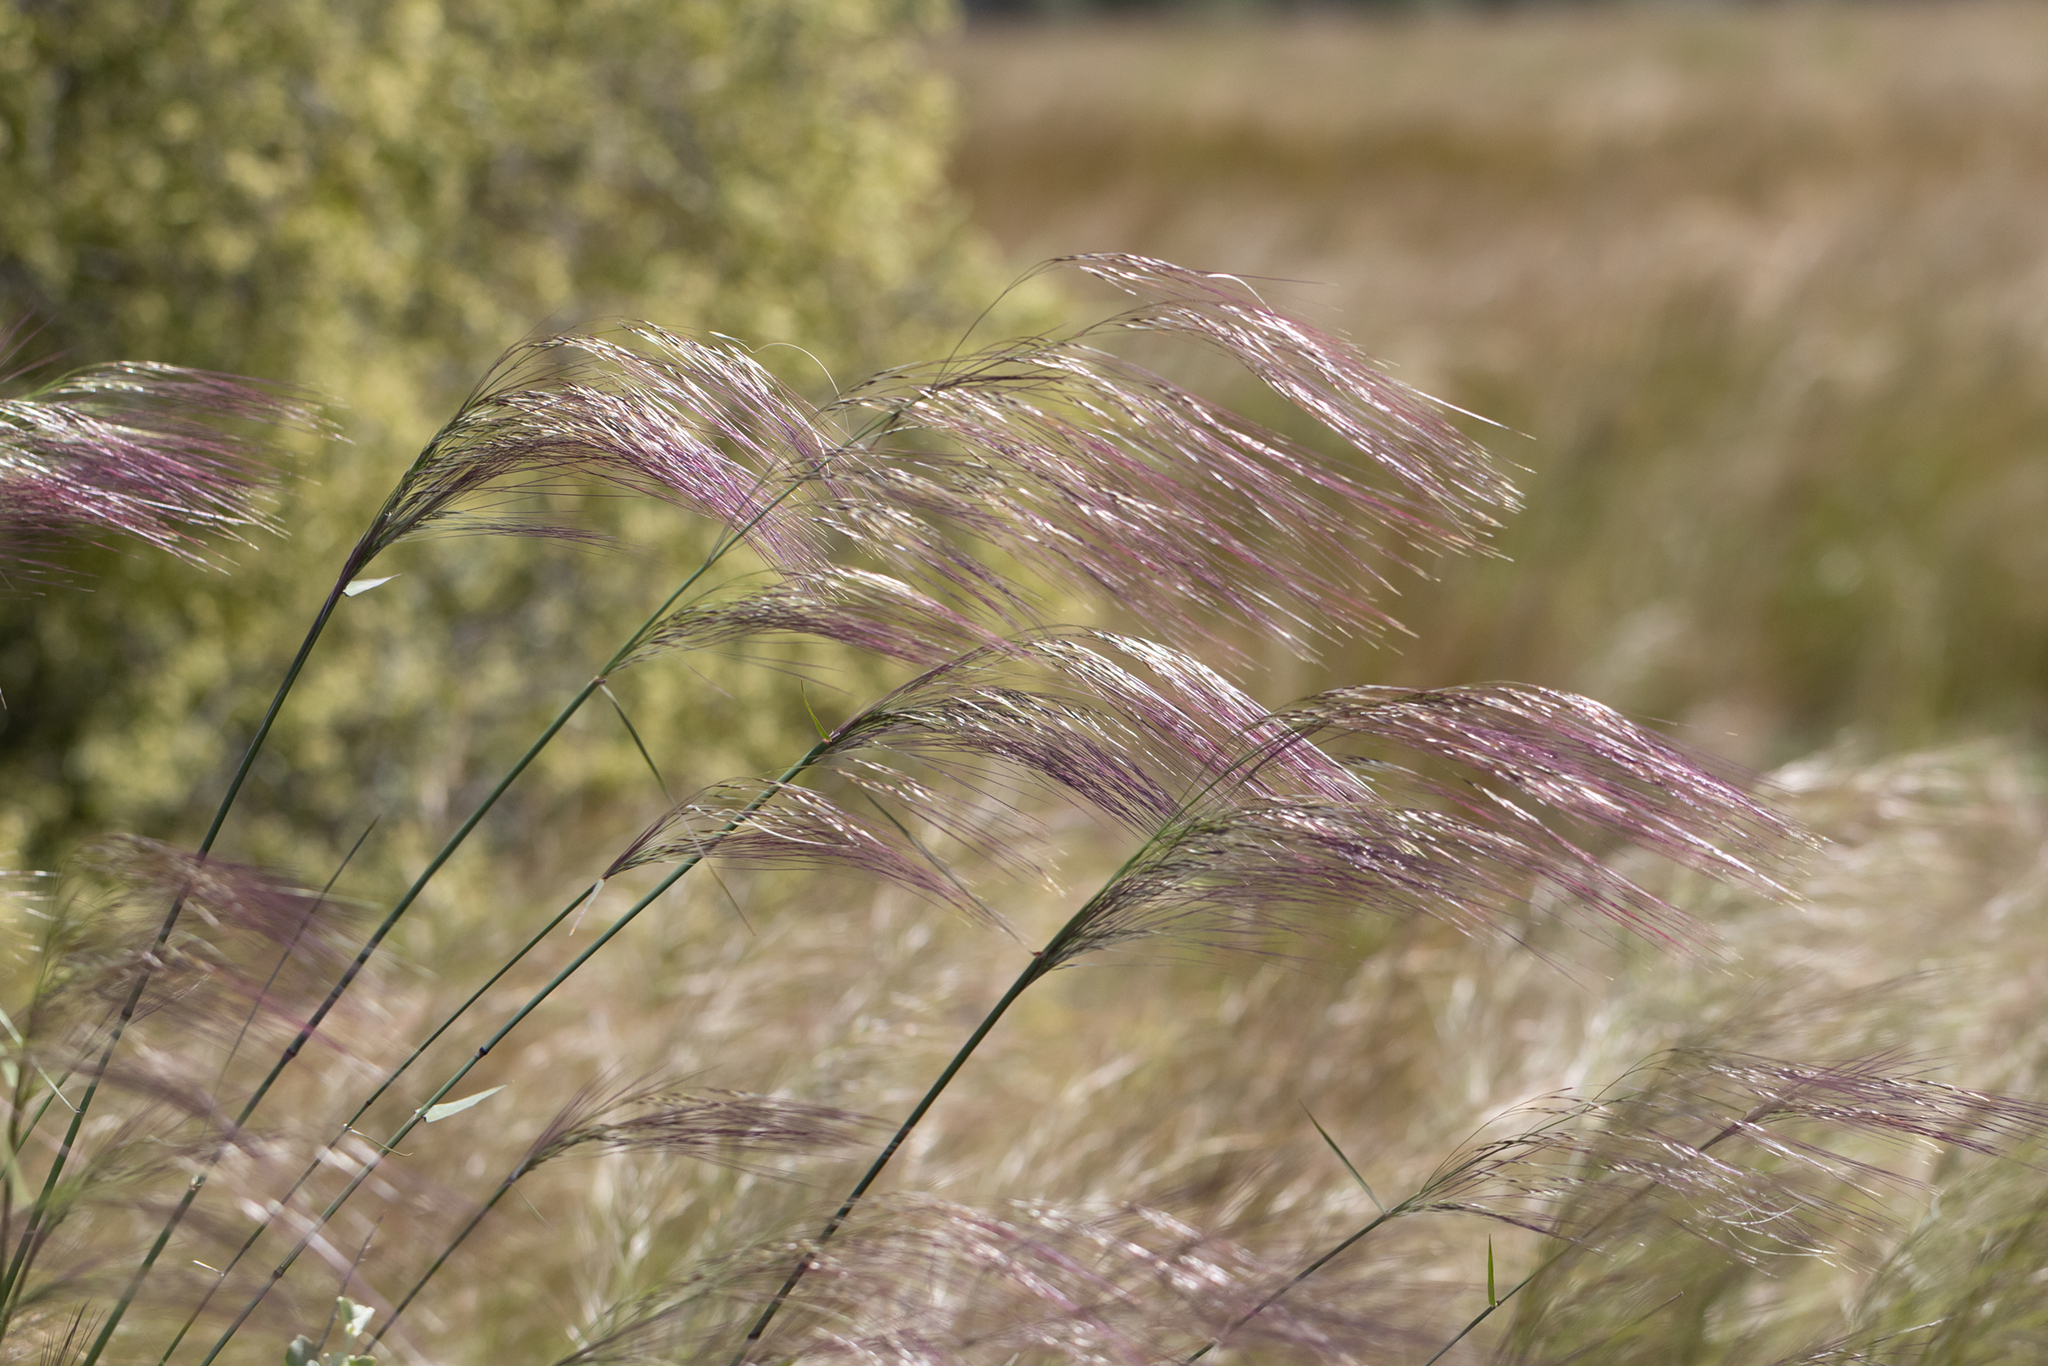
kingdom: Plantae
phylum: Tracheophyta
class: Liliopsida
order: Poales
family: Poaceae
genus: Austrostipa
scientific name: Austrostipa platychaeta
